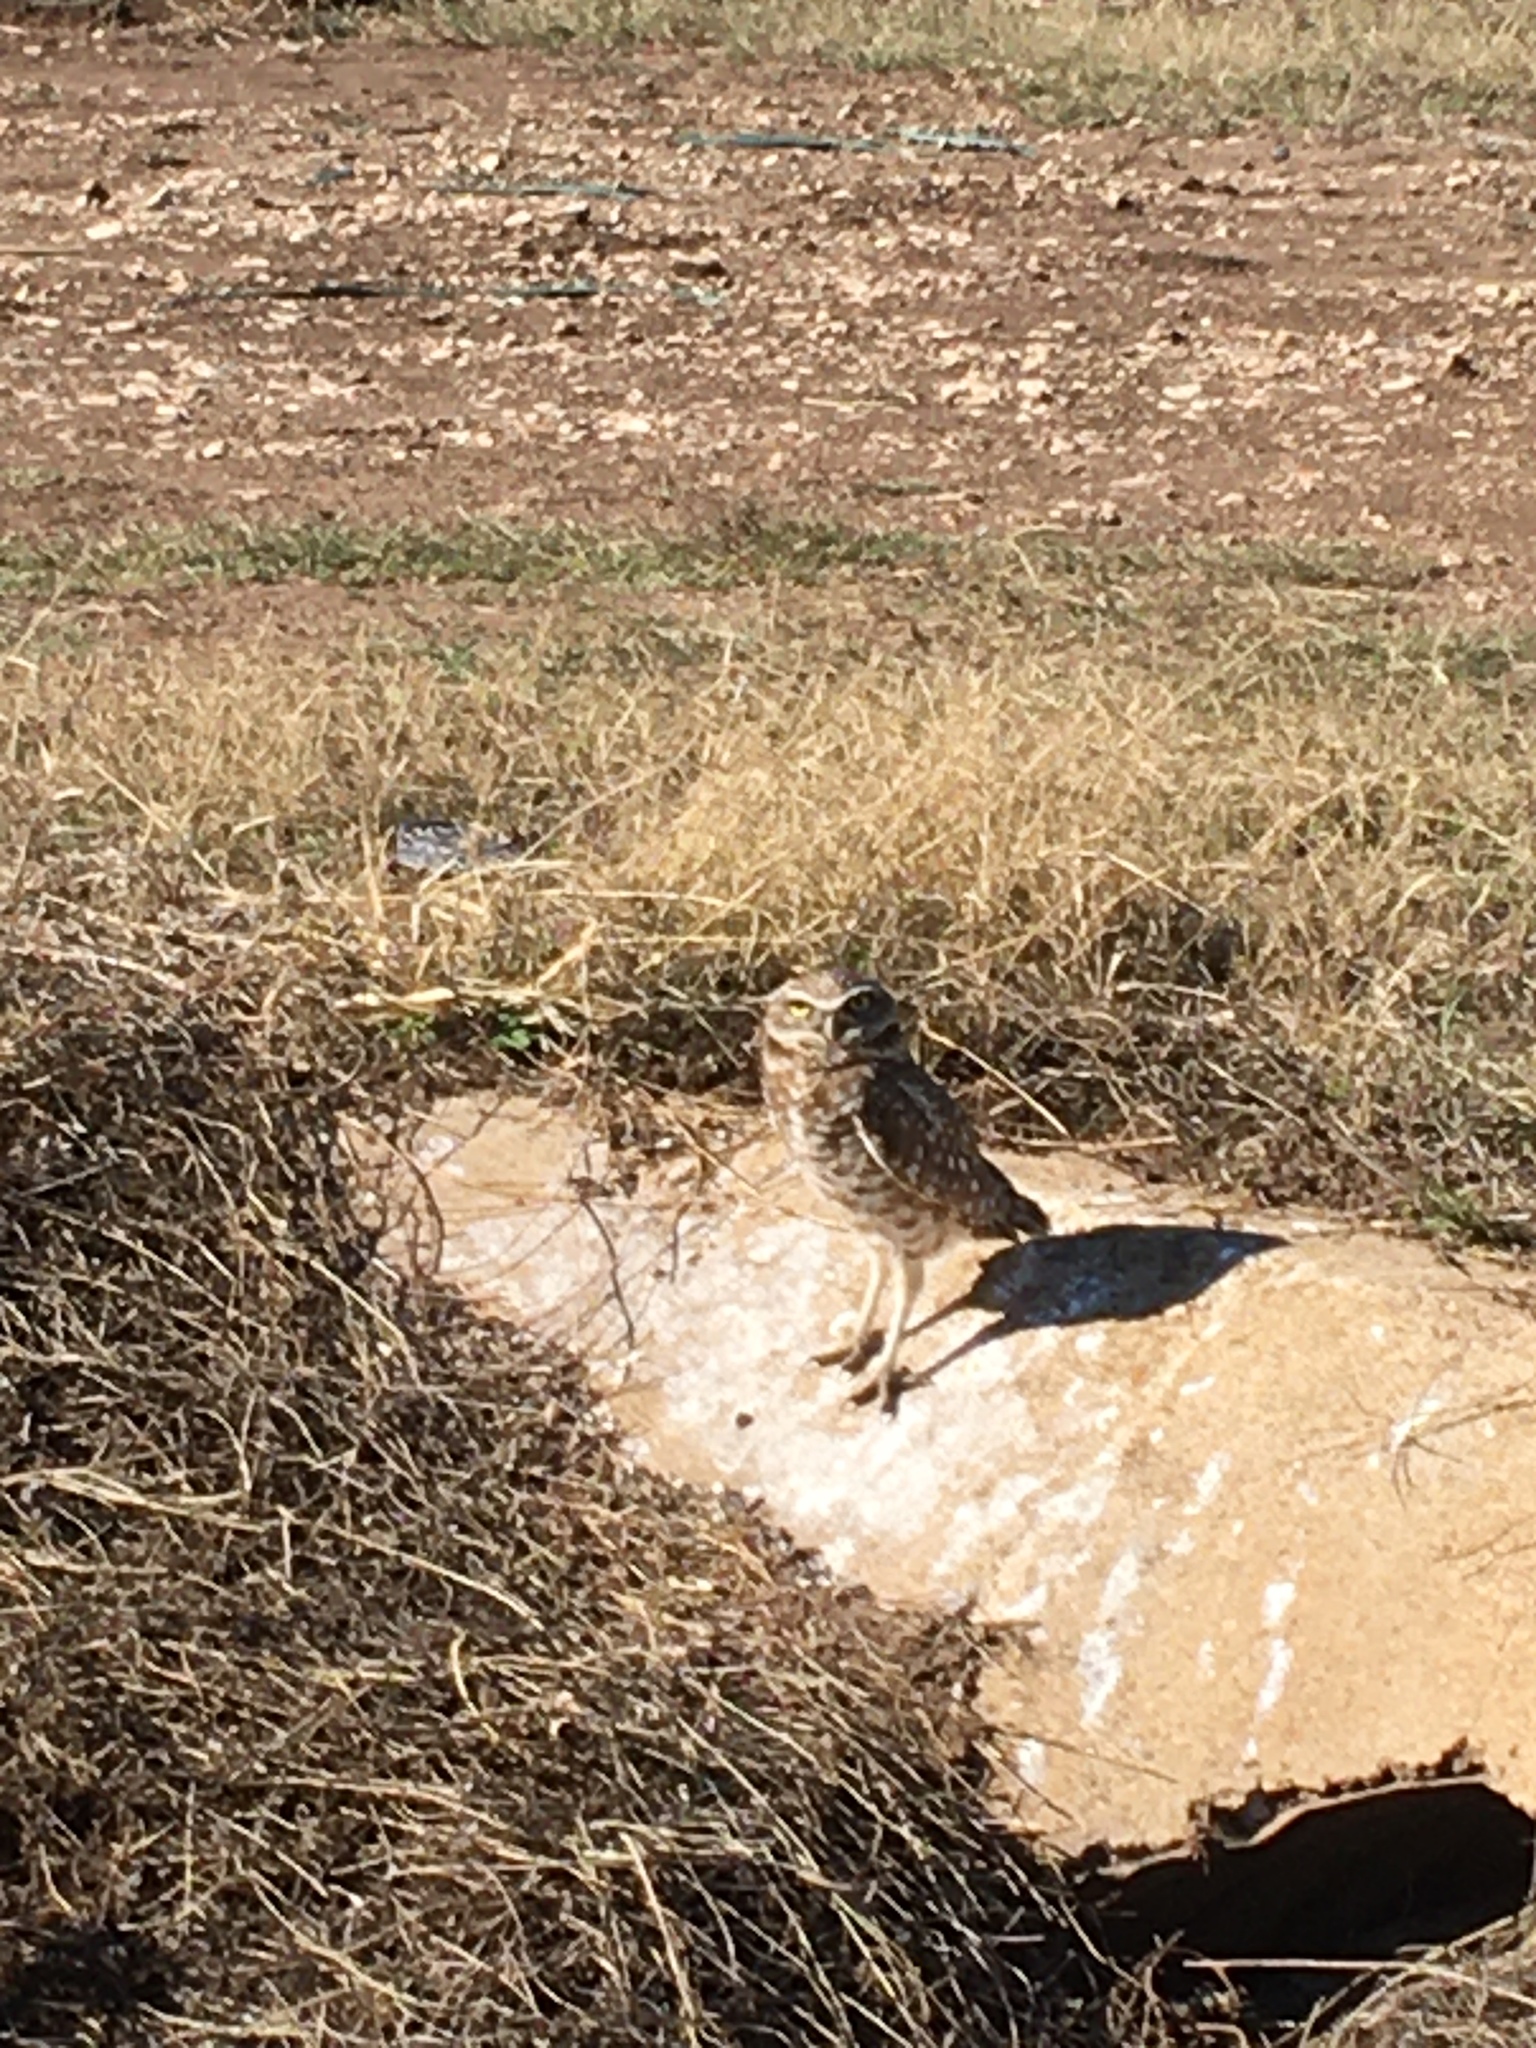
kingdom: Animalia
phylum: Chordata
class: Aves
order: Strigiformes
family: Strigidae
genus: Athene
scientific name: Athene cunicularia
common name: Burrowing owl
